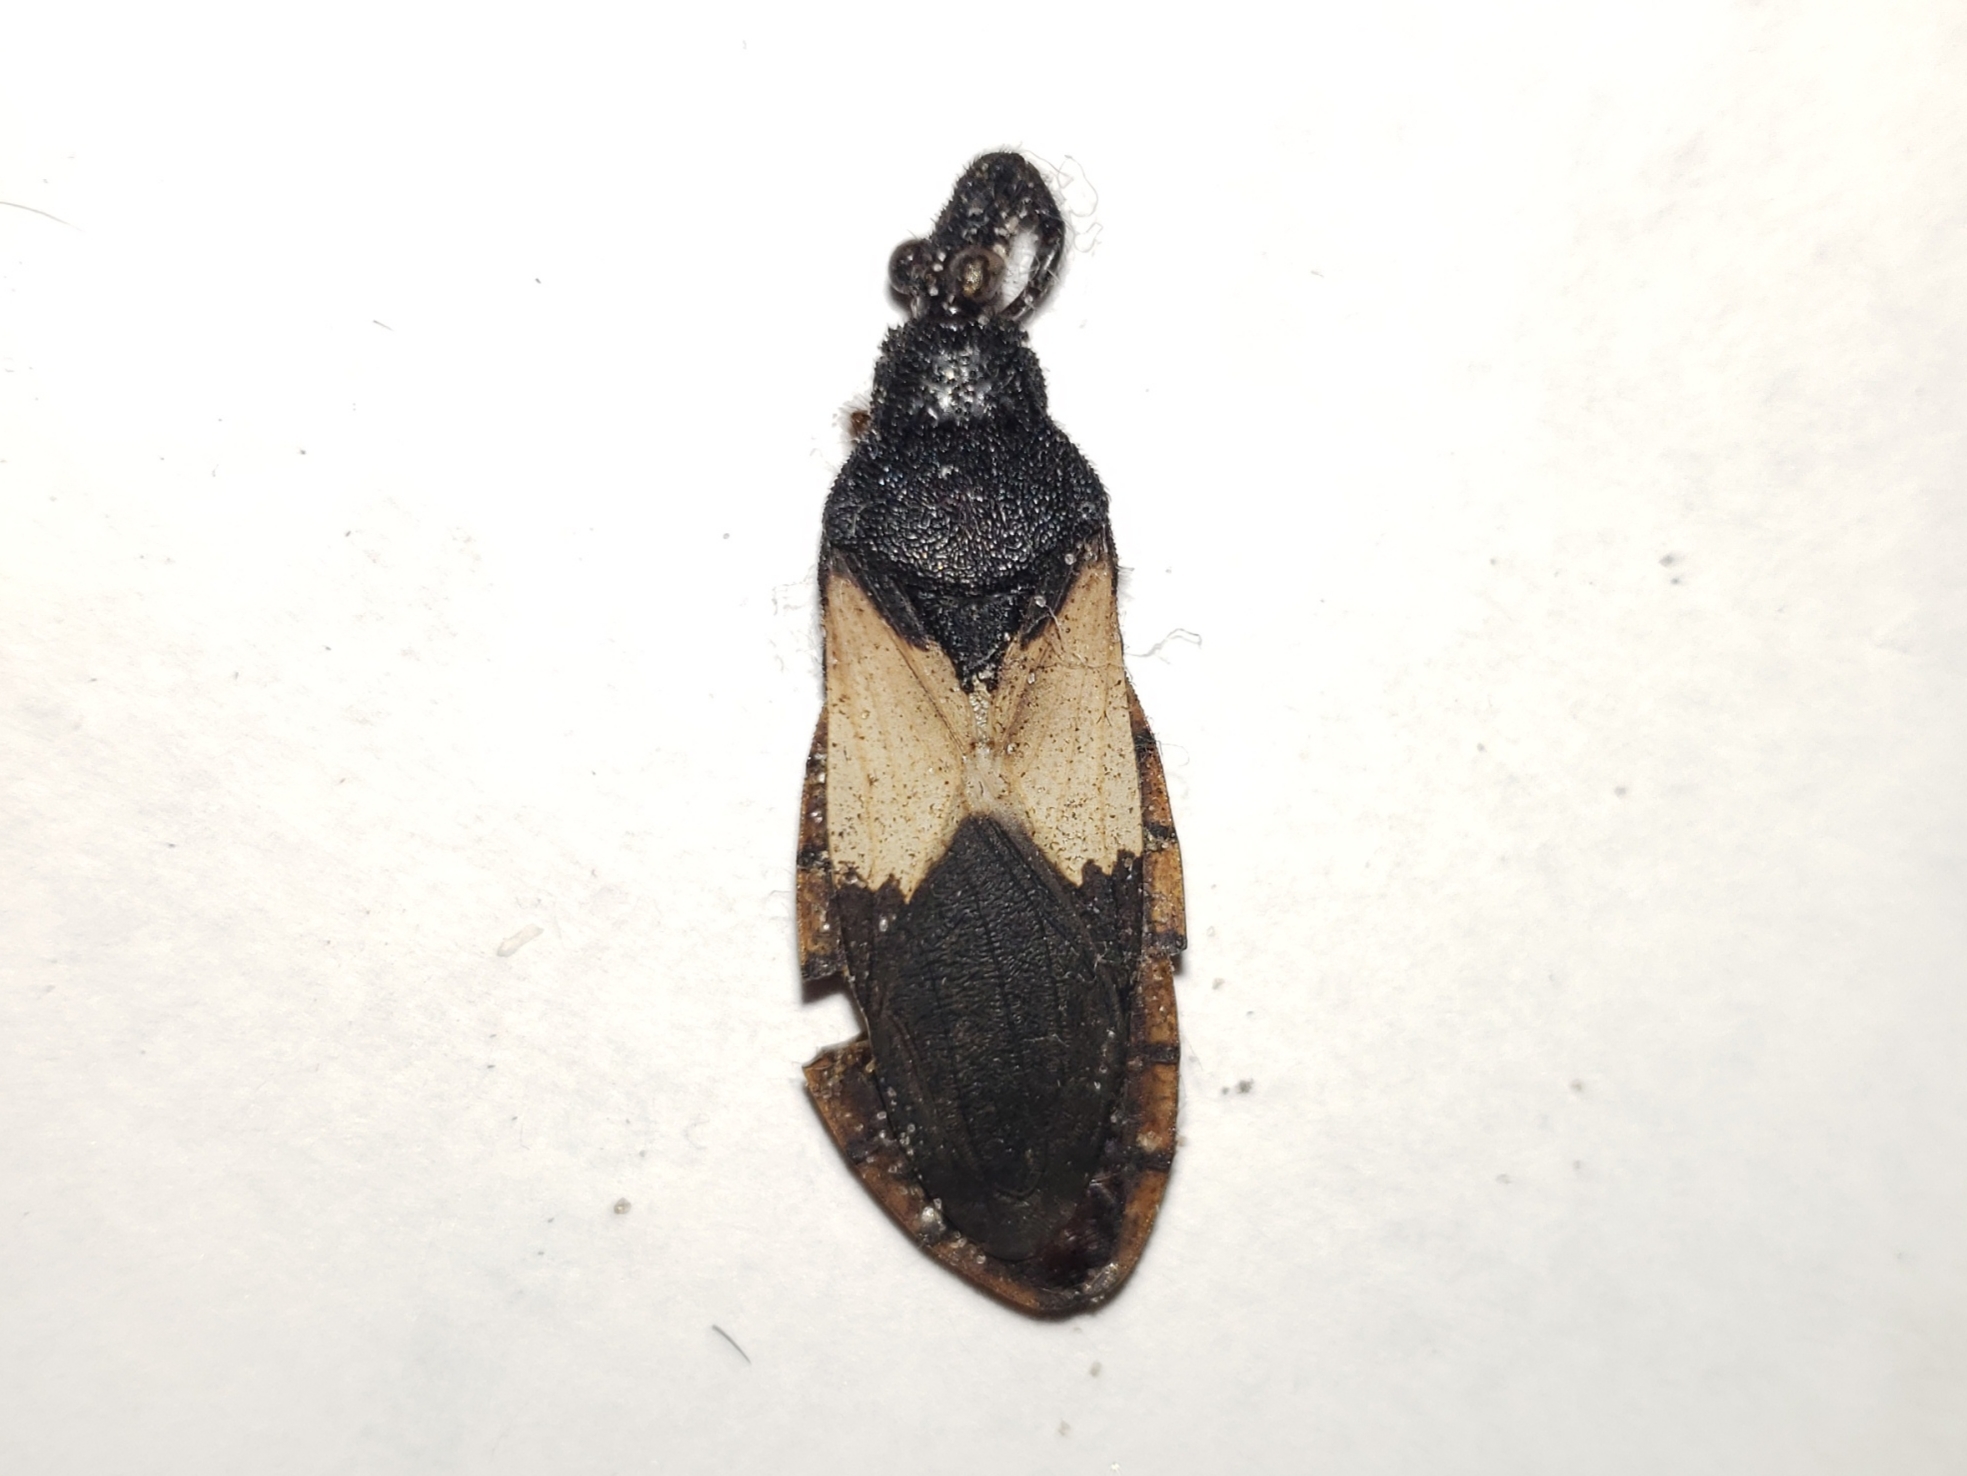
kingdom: Animalia
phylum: Arthropoda
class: Insecta
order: Hemiptera
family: Reduviidae
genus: Microtomus
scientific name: Microtomus purcis
